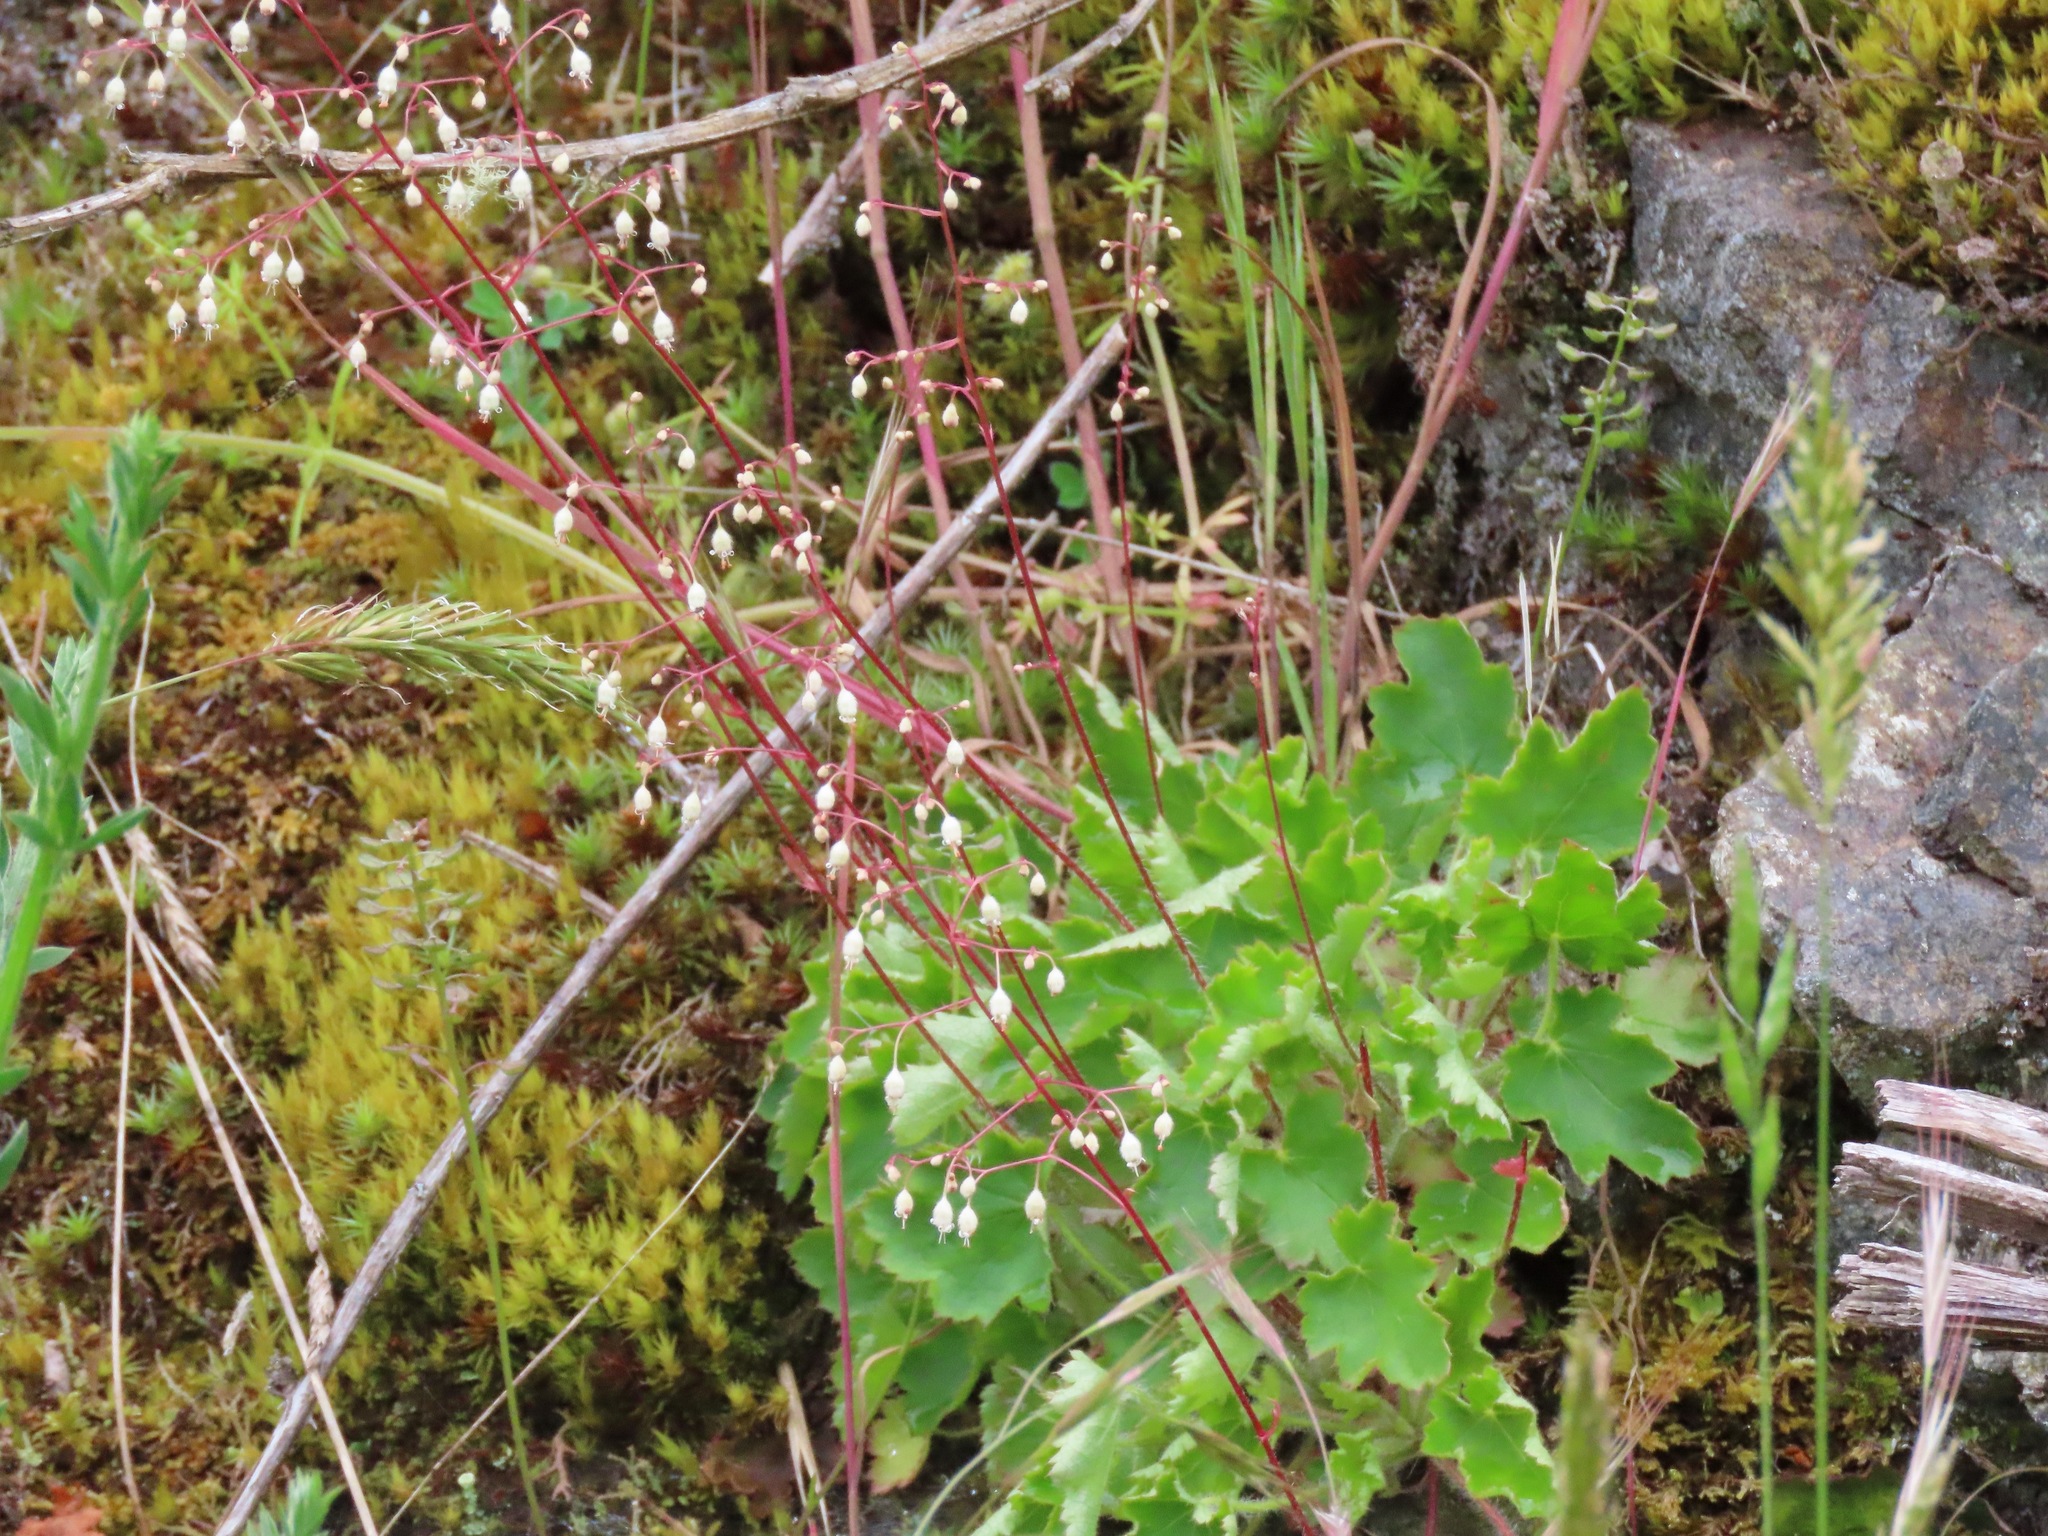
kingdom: Plantae
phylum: Tracheophyta
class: Magnoliopsida
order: Saxifragales
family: Saxifragaceae
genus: Heuchera
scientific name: Heuchera micrantha
